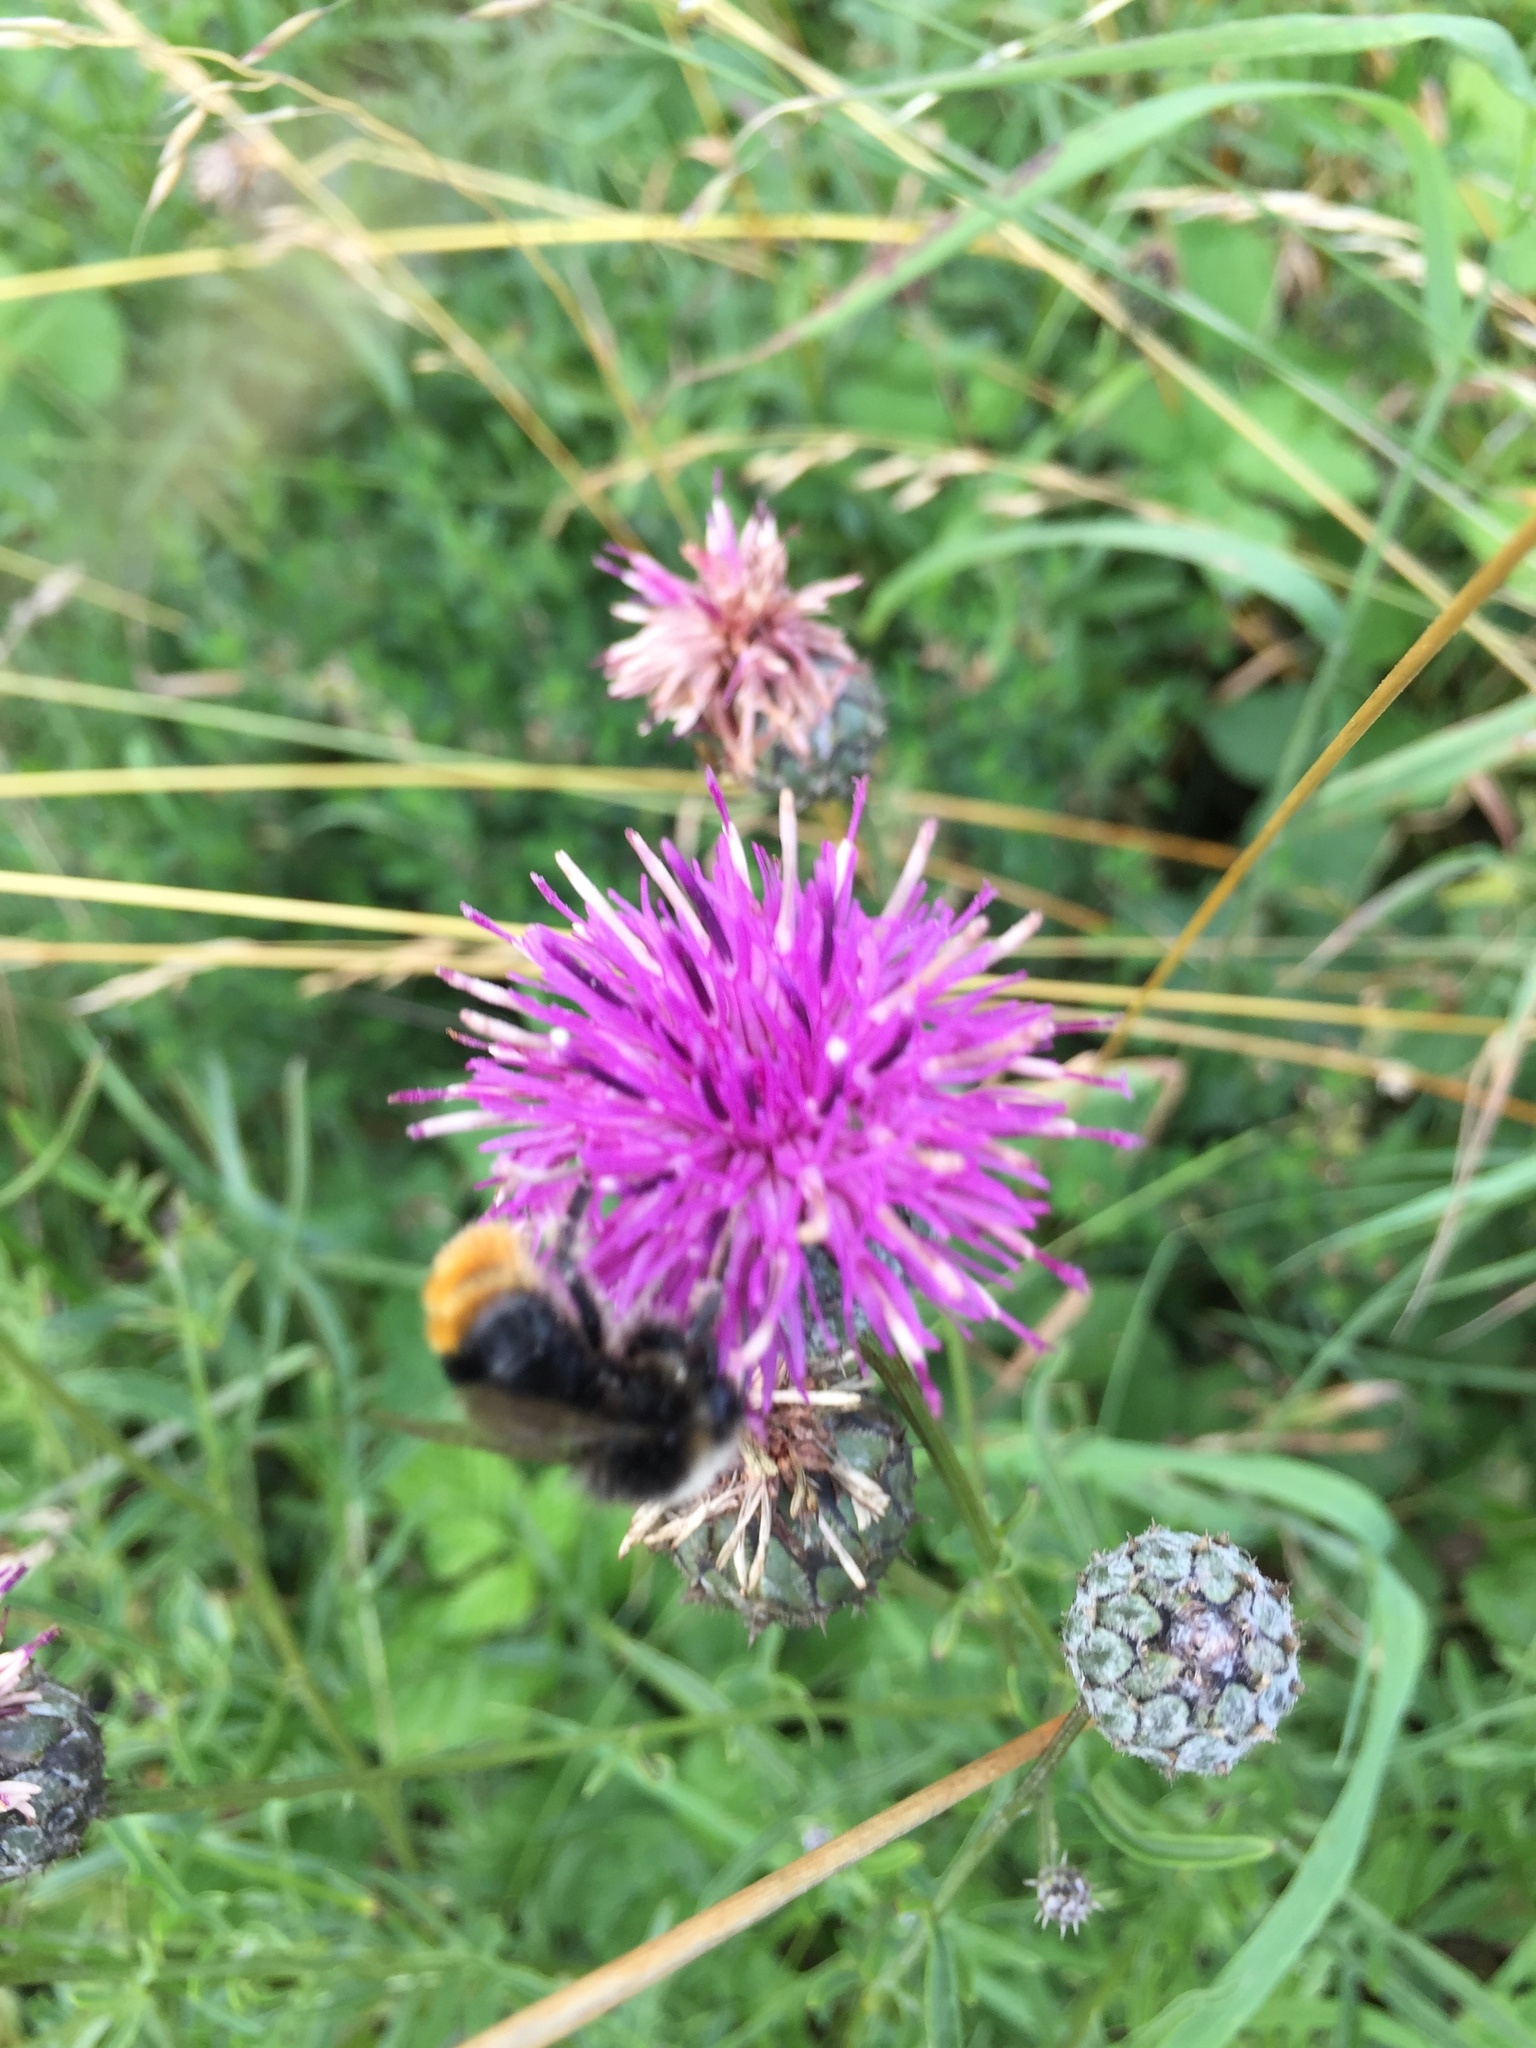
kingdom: Animalia
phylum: Arthropoda
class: Insecta
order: Hymenoptera
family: Apidae
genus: Bombus
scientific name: Bombus lapidarius
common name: Large red-tailed humble-bee
